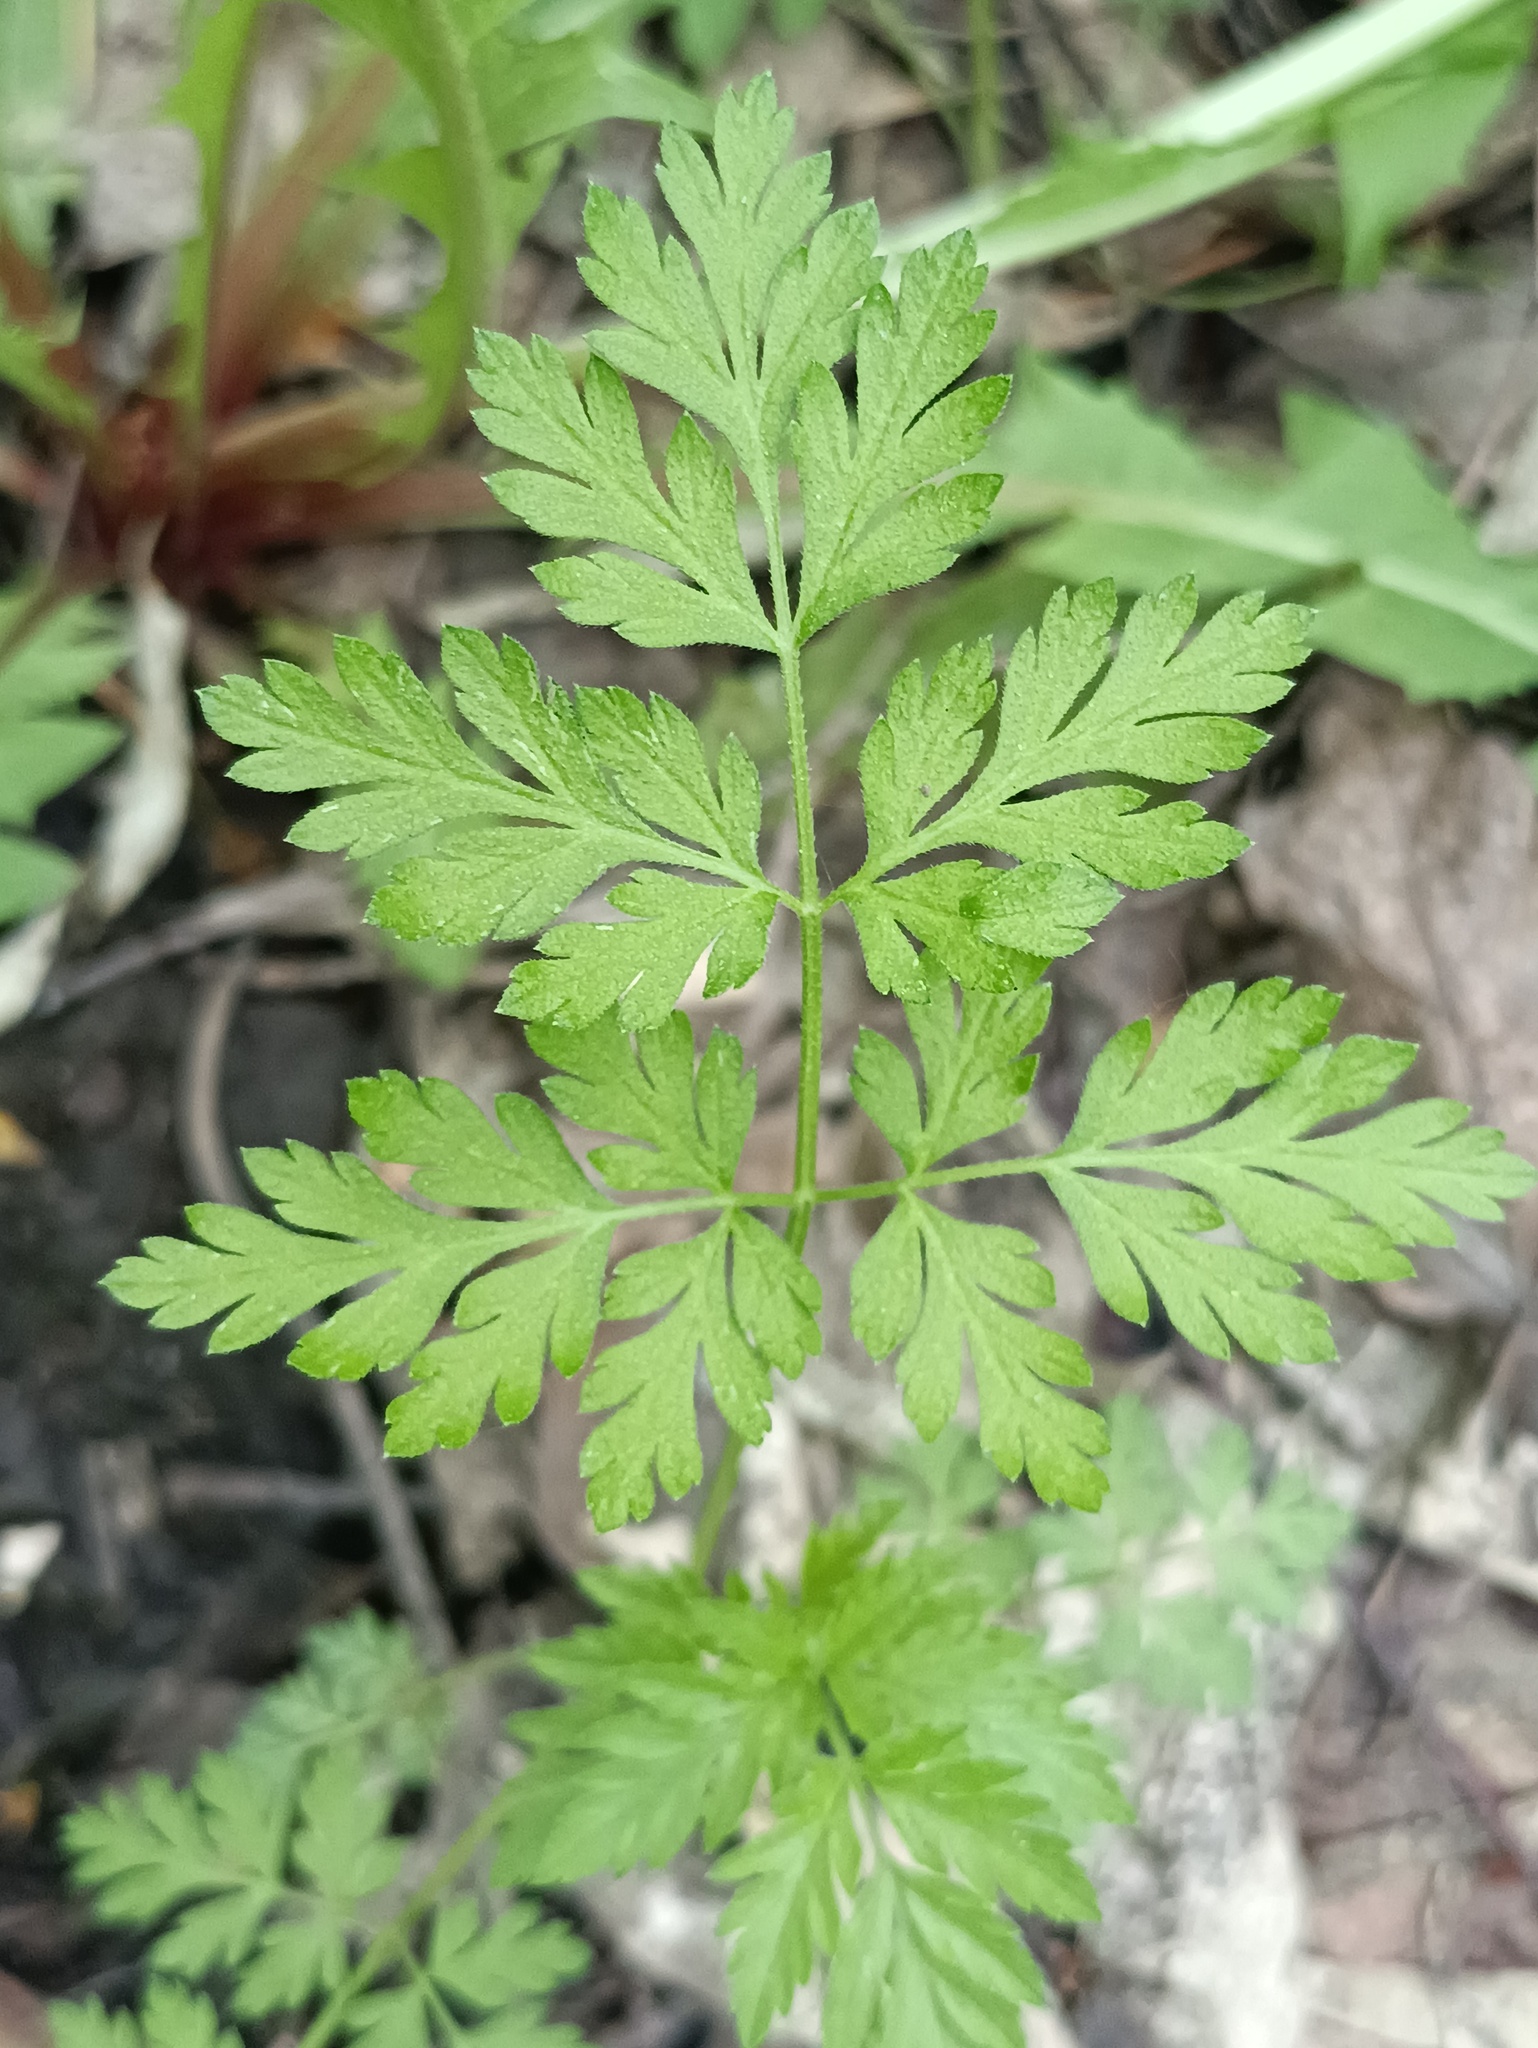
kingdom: Plantae
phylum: Tracheophyta
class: Magnoliopsida
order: Apiales
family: Apiaceae
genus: Torilis
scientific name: Torilis japonica
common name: Upright hedge-parsley
